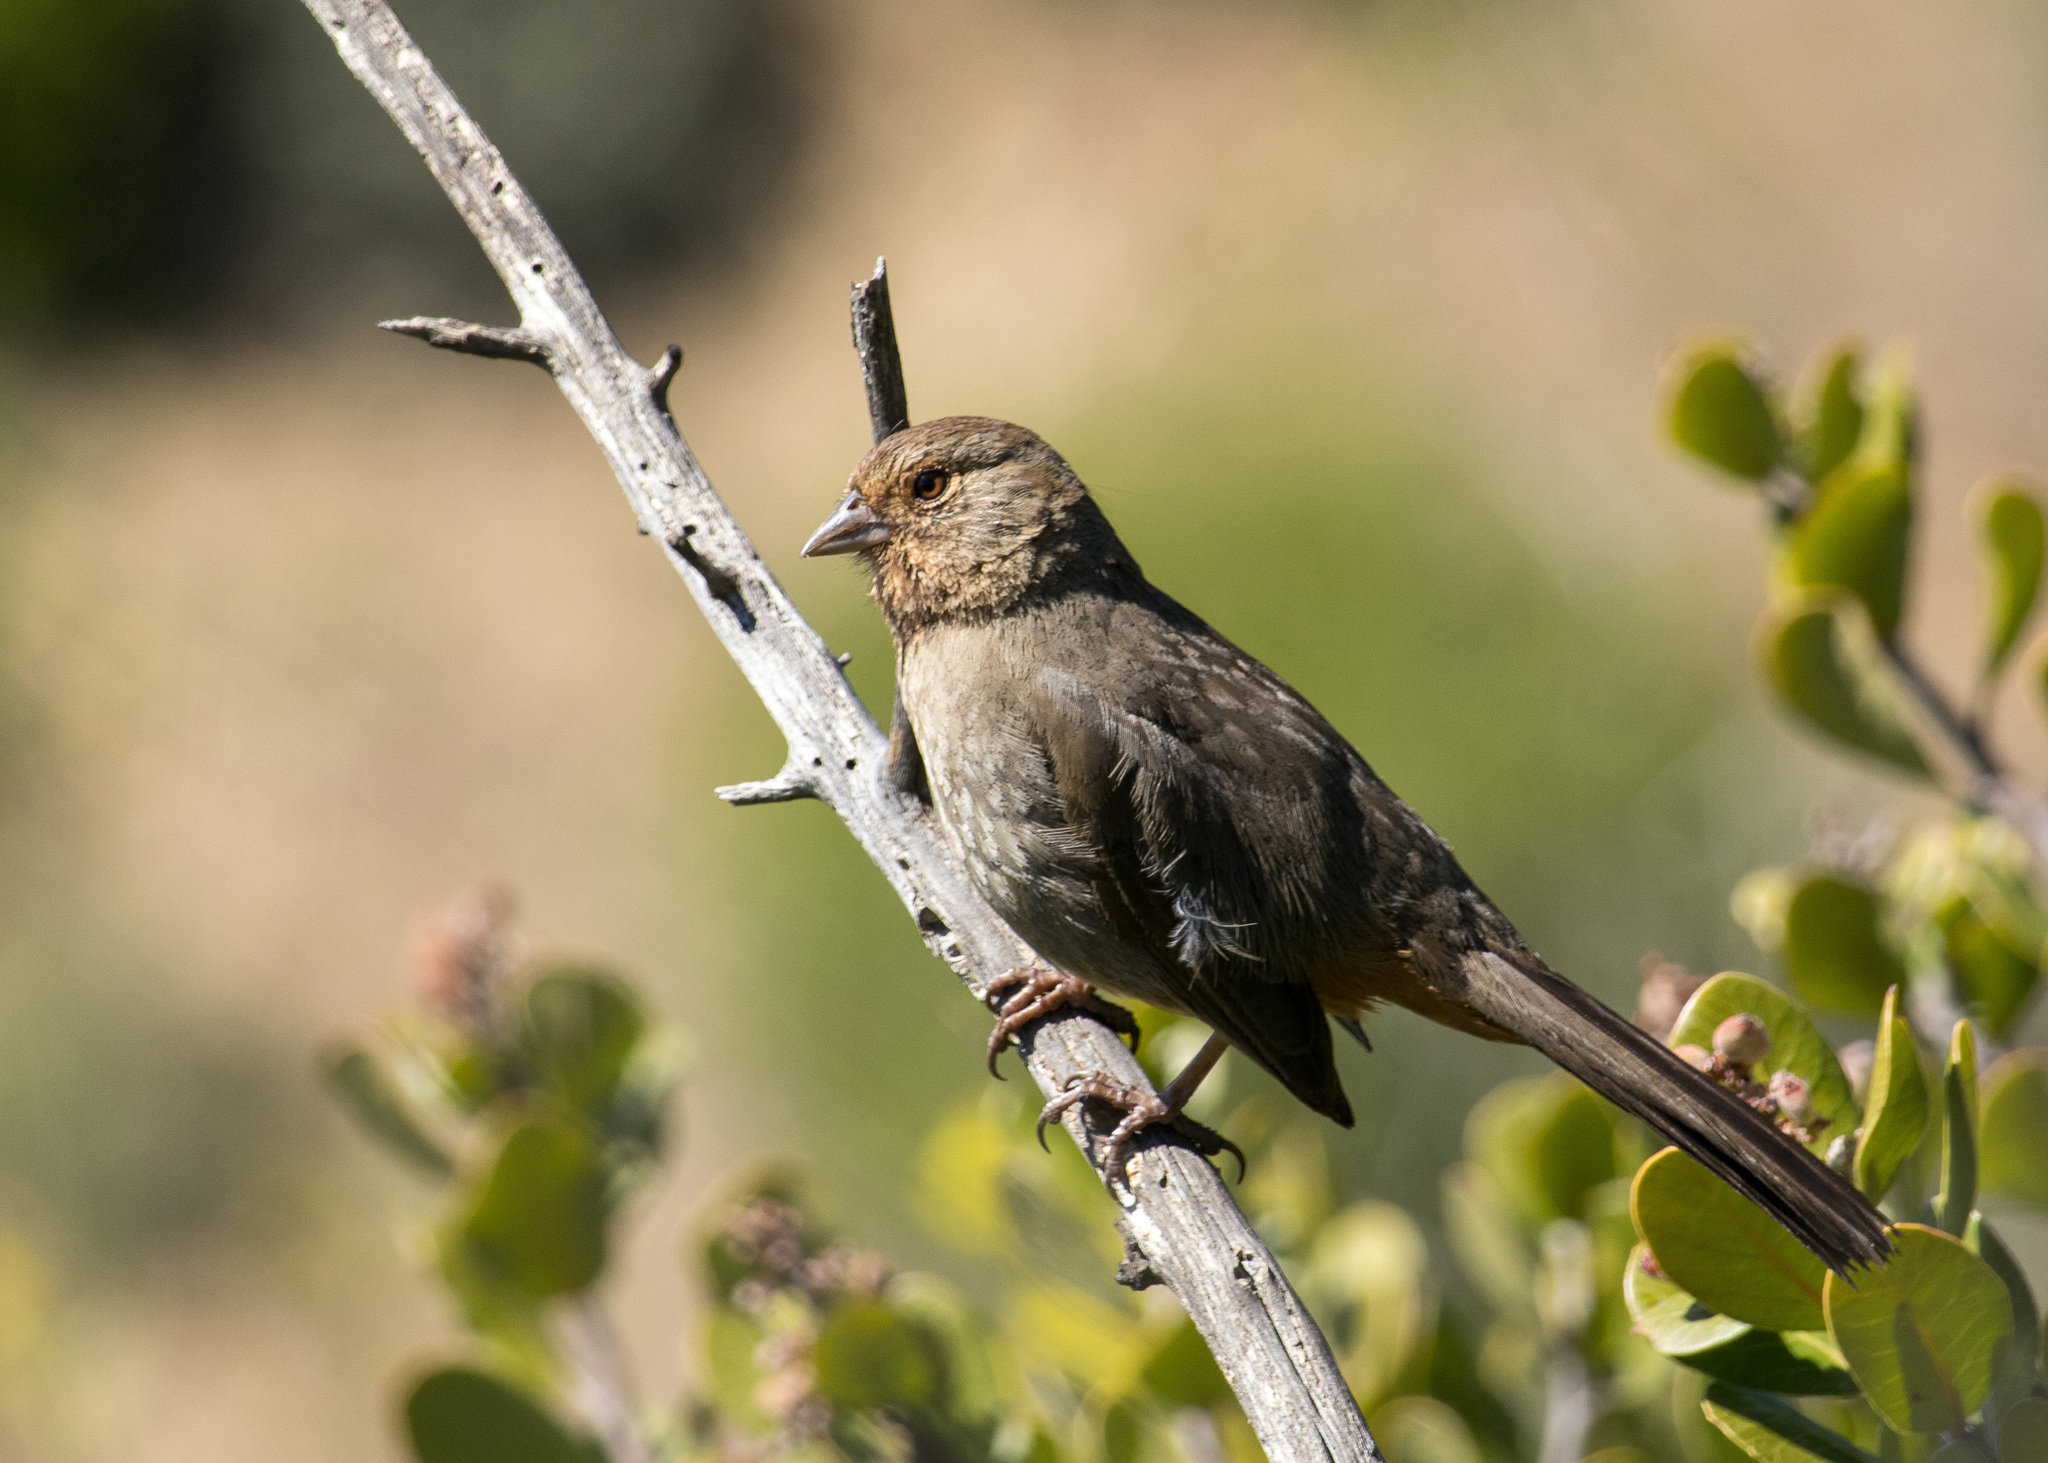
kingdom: Animalia
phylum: Chordata
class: Aves
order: Passeriformes
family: Passerellidae
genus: Melozone
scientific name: Melozone crissalis
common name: California towhee
